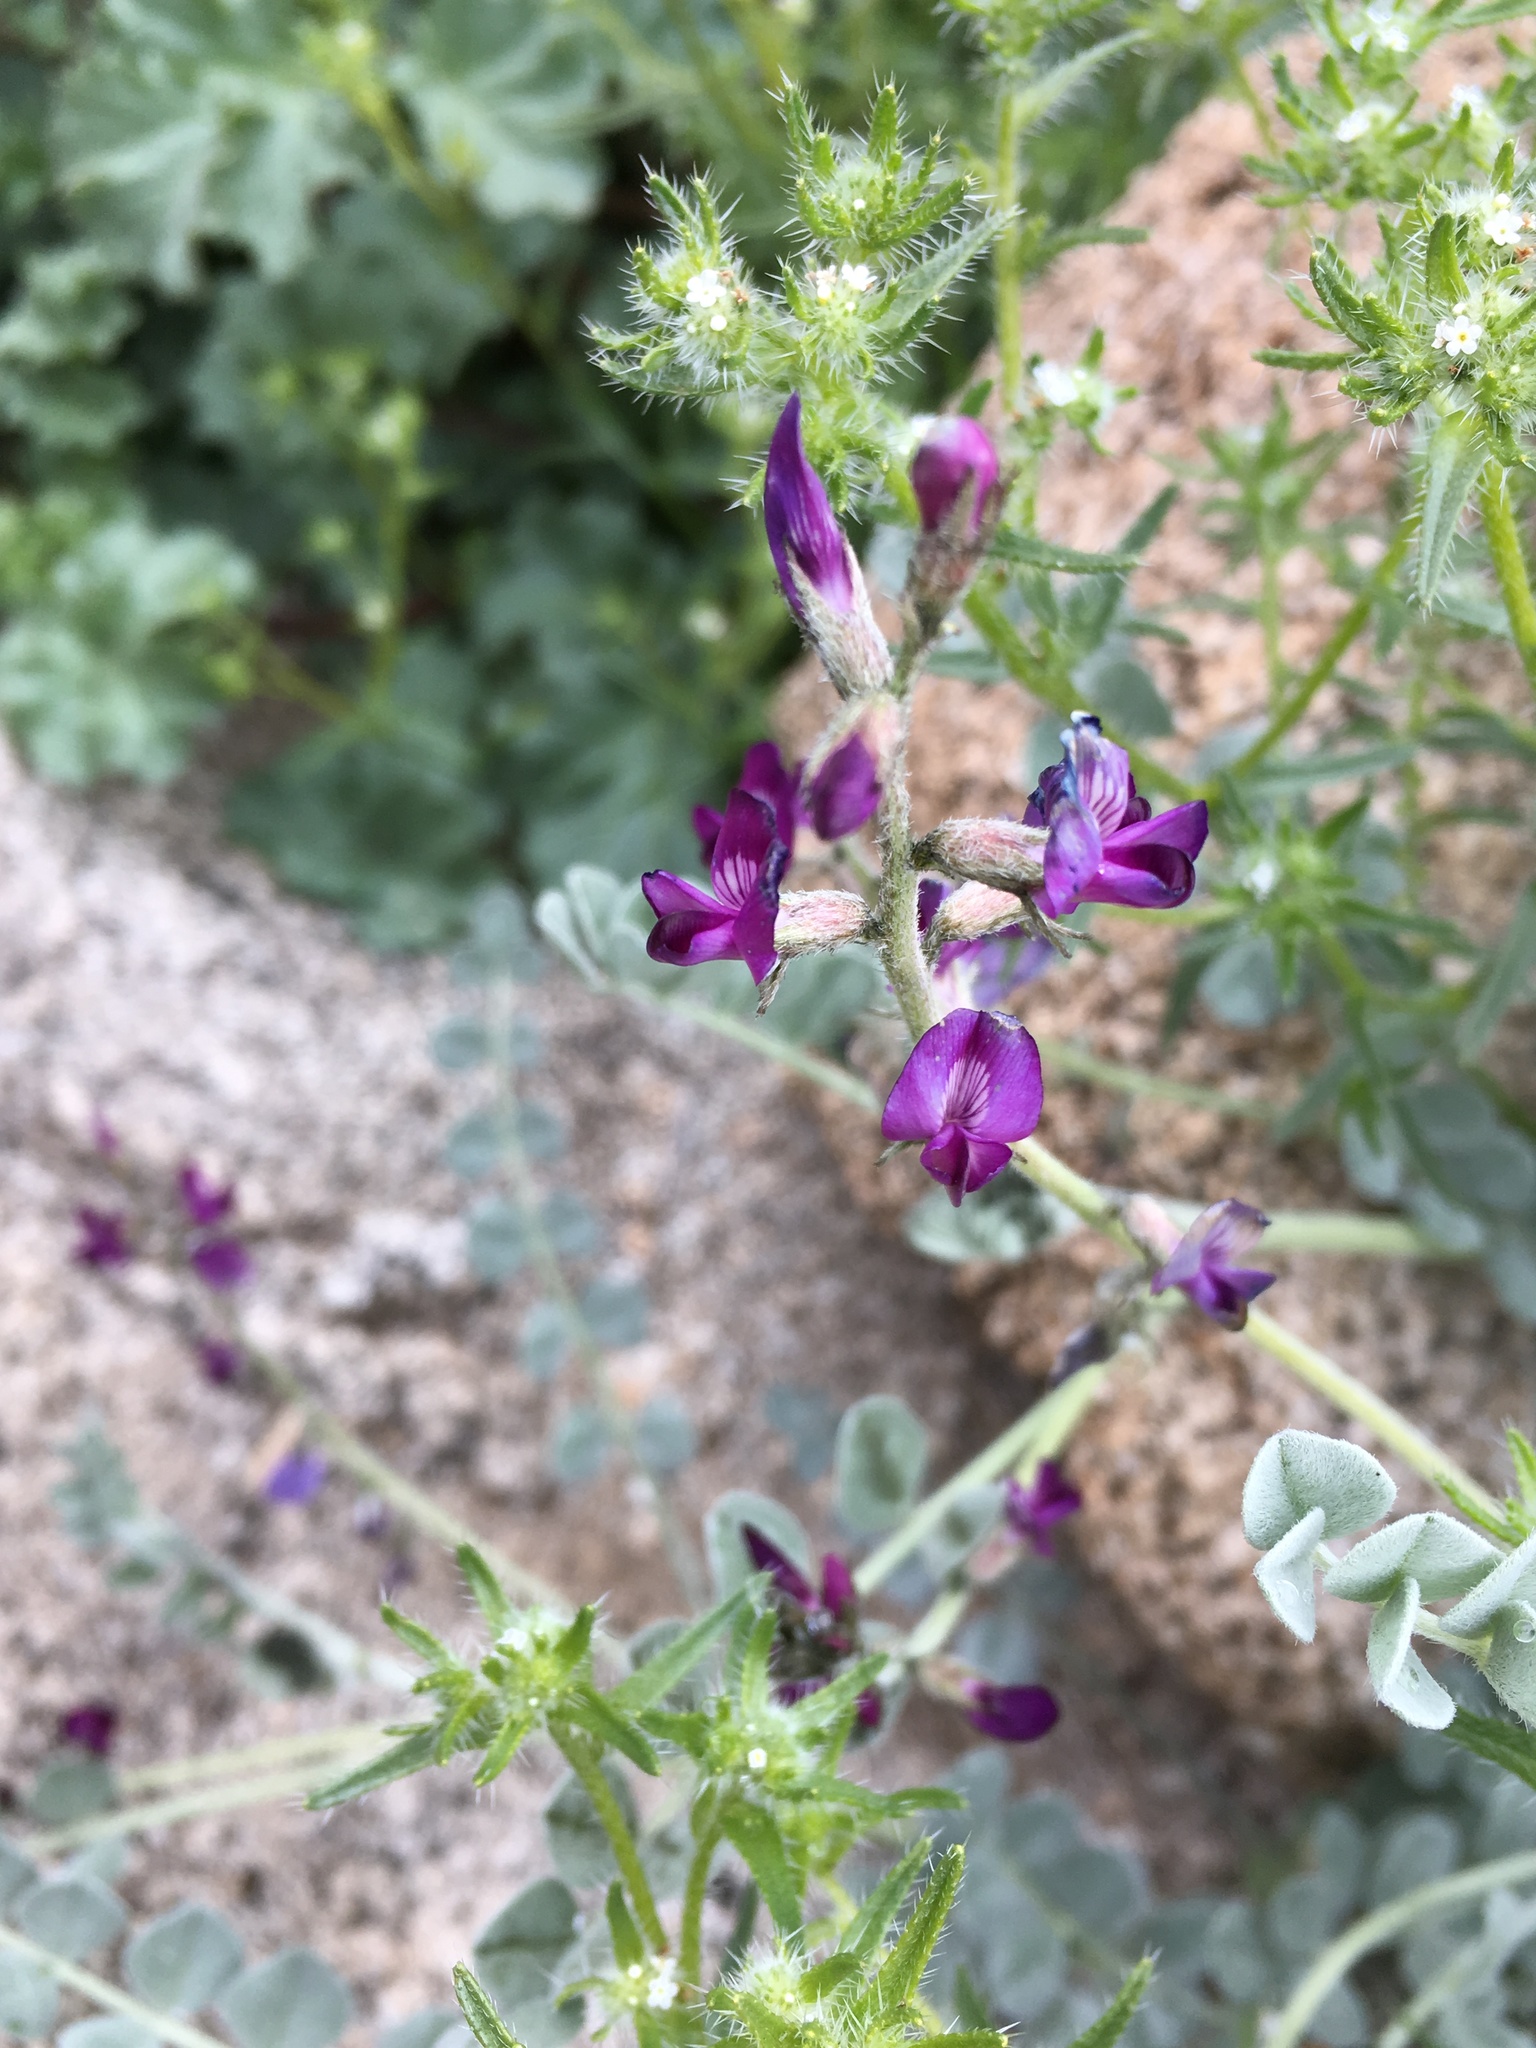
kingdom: Plantae
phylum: Tracheophyta
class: Magnoliopsida
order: Fabales
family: Fabaceae
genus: Astragalus
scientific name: Astragalus mohavensis
